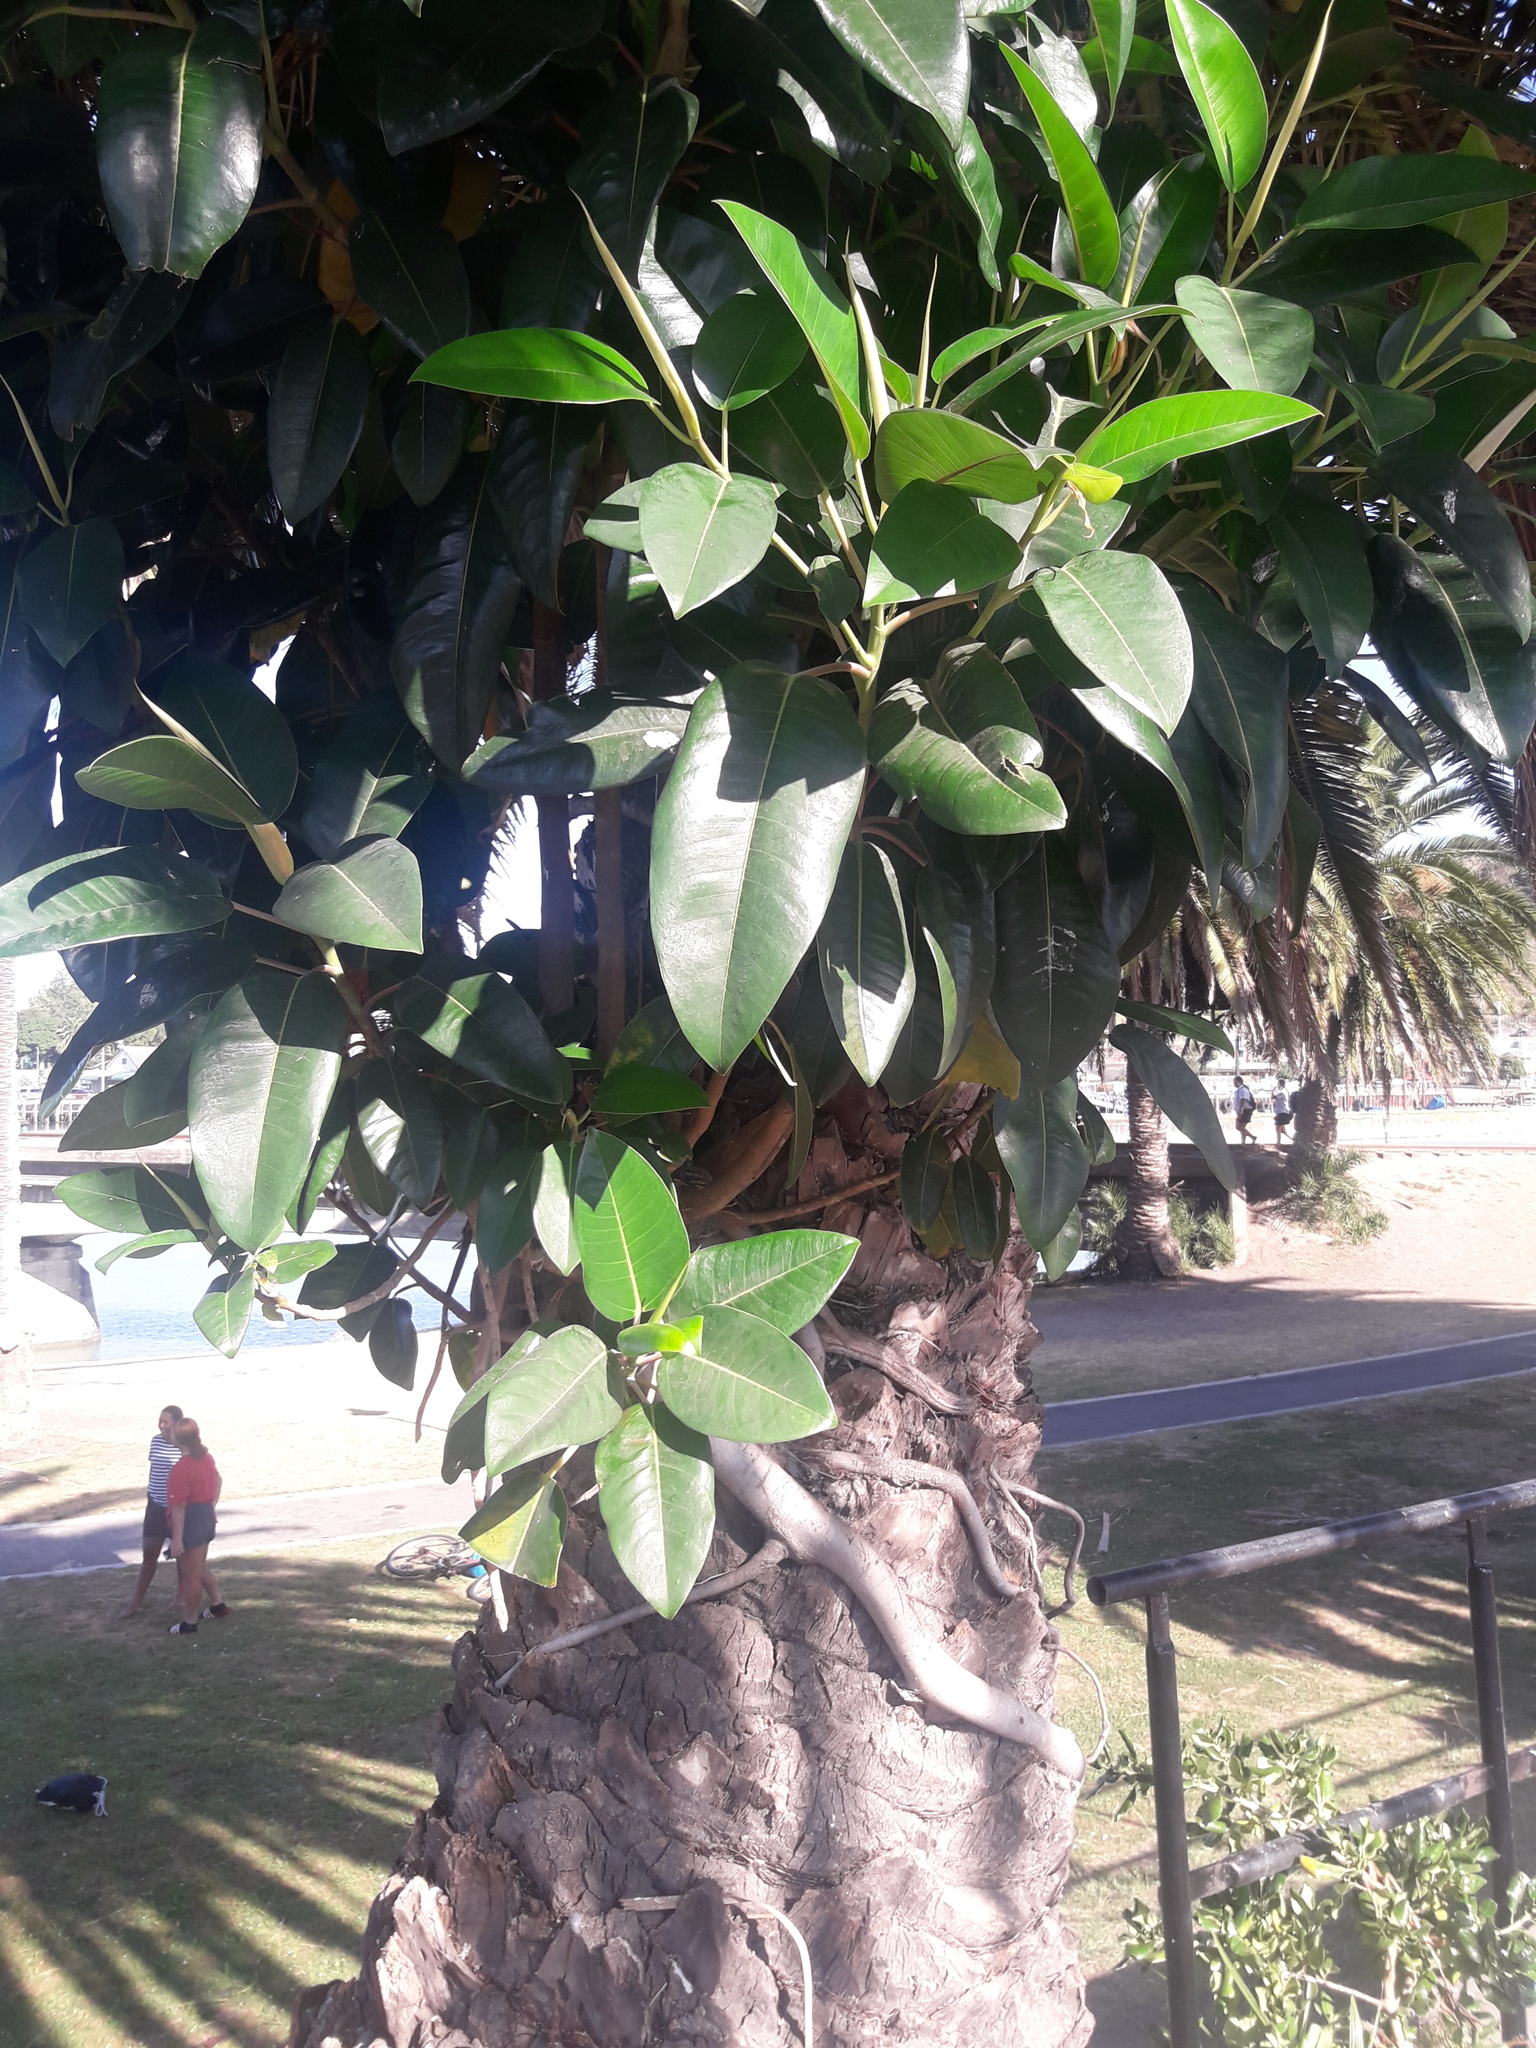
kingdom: Plantae
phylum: Tracheophyta
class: Magnoliopsida
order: Rosales
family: Moraceae
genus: Ficus
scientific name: Ficus macrophylla
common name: Moreton bay fig
